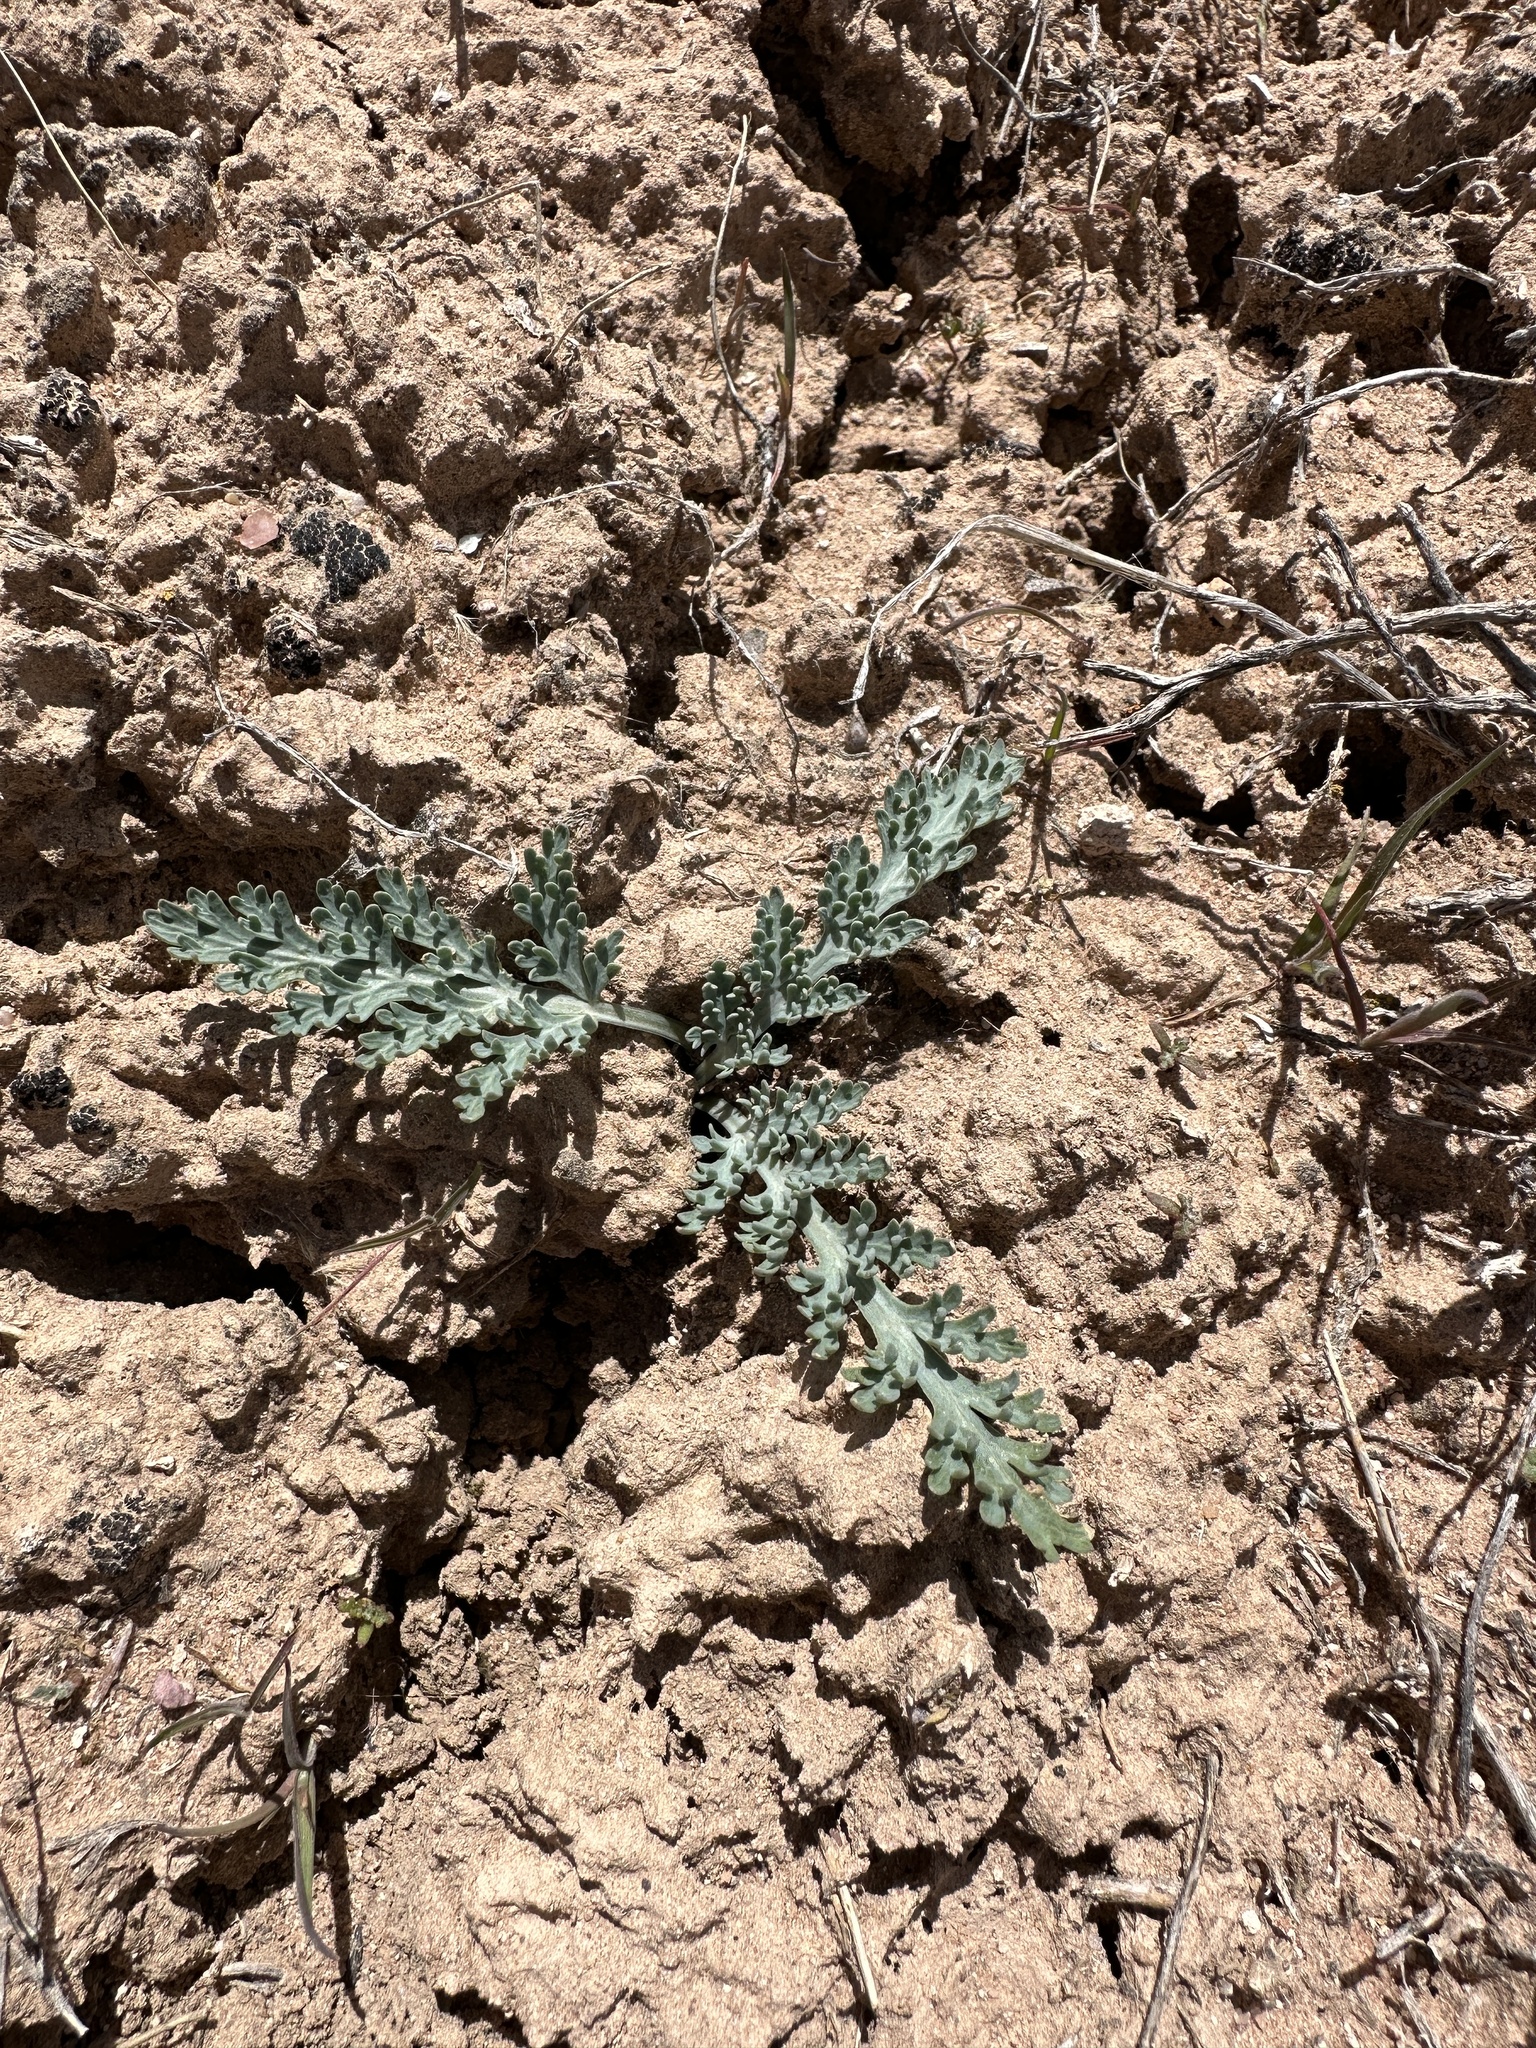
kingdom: Plantae
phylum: Tracheophyta
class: Magnoliopsida
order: Apiales
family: Apiaceae
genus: Vesper
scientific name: Vesper purpurascens
